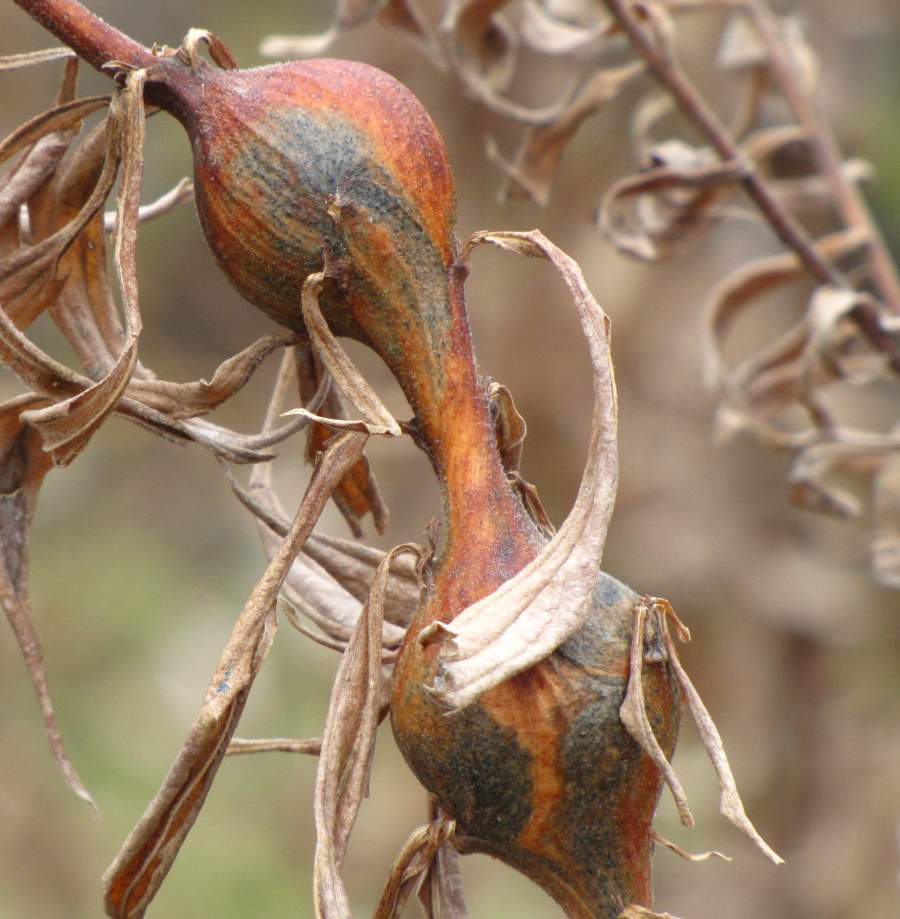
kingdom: Animalia
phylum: Arthropoda
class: Insecta
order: Diptera
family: Tephritidae
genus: Eurosta
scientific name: Eurosta solidaginis
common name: Goldenrod gall fly
